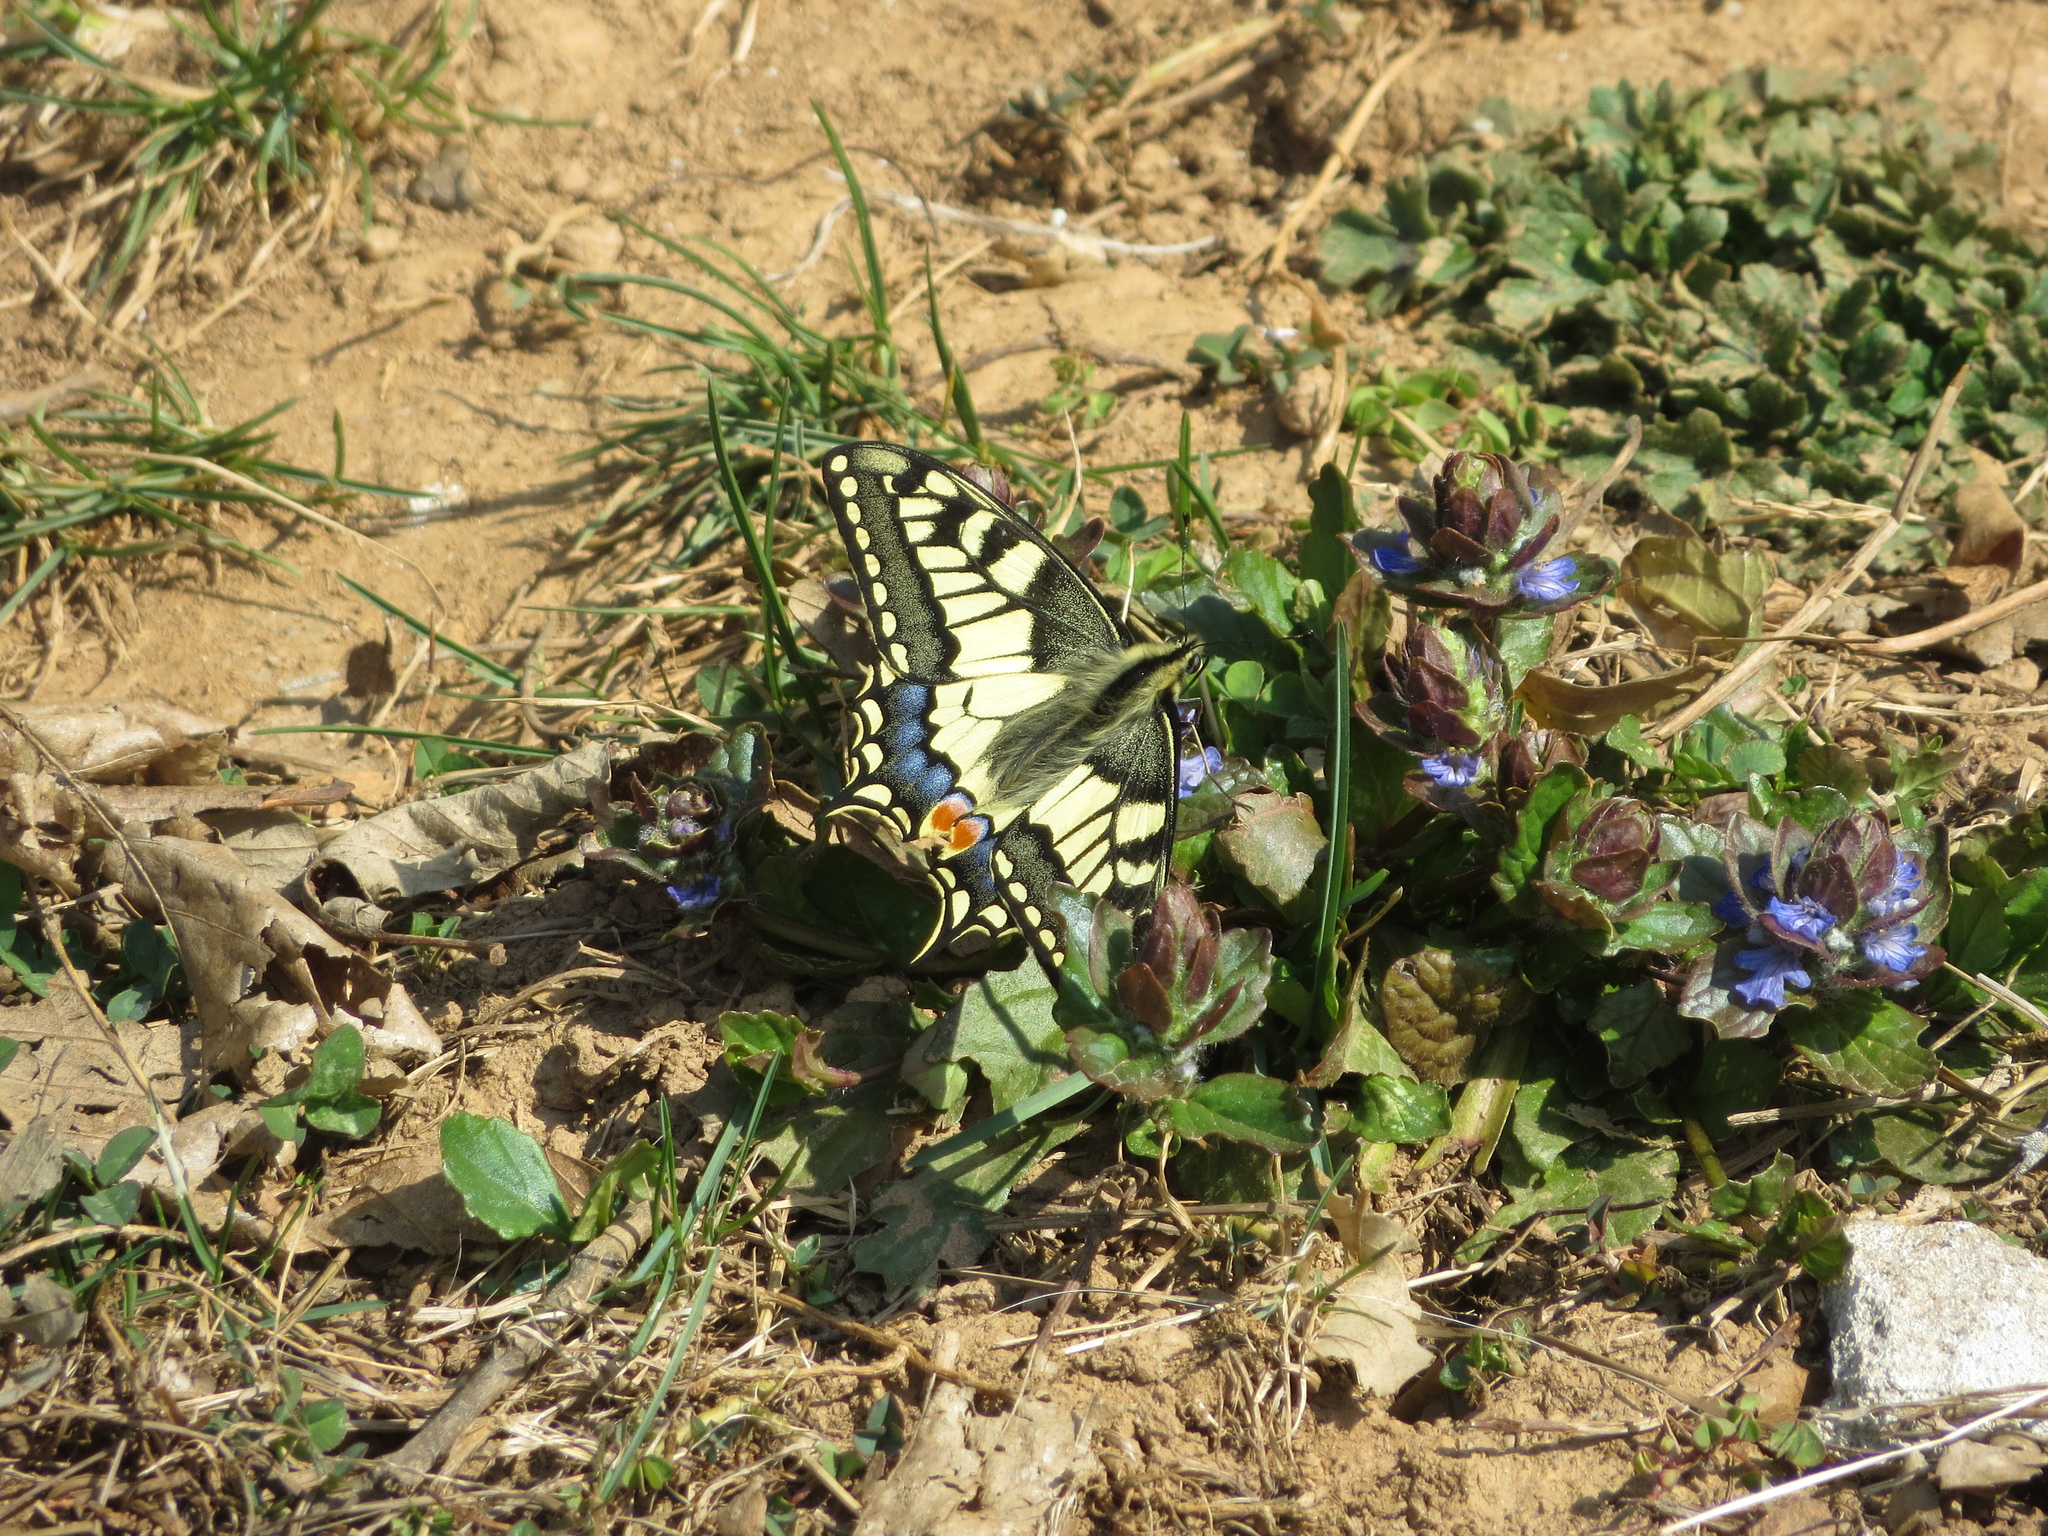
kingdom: Animalia
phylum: Arthropoda
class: Insecta
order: Lepidoptera
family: Papilionidae
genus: Papilio
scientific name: Papilio machaon
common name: Swallowtail
